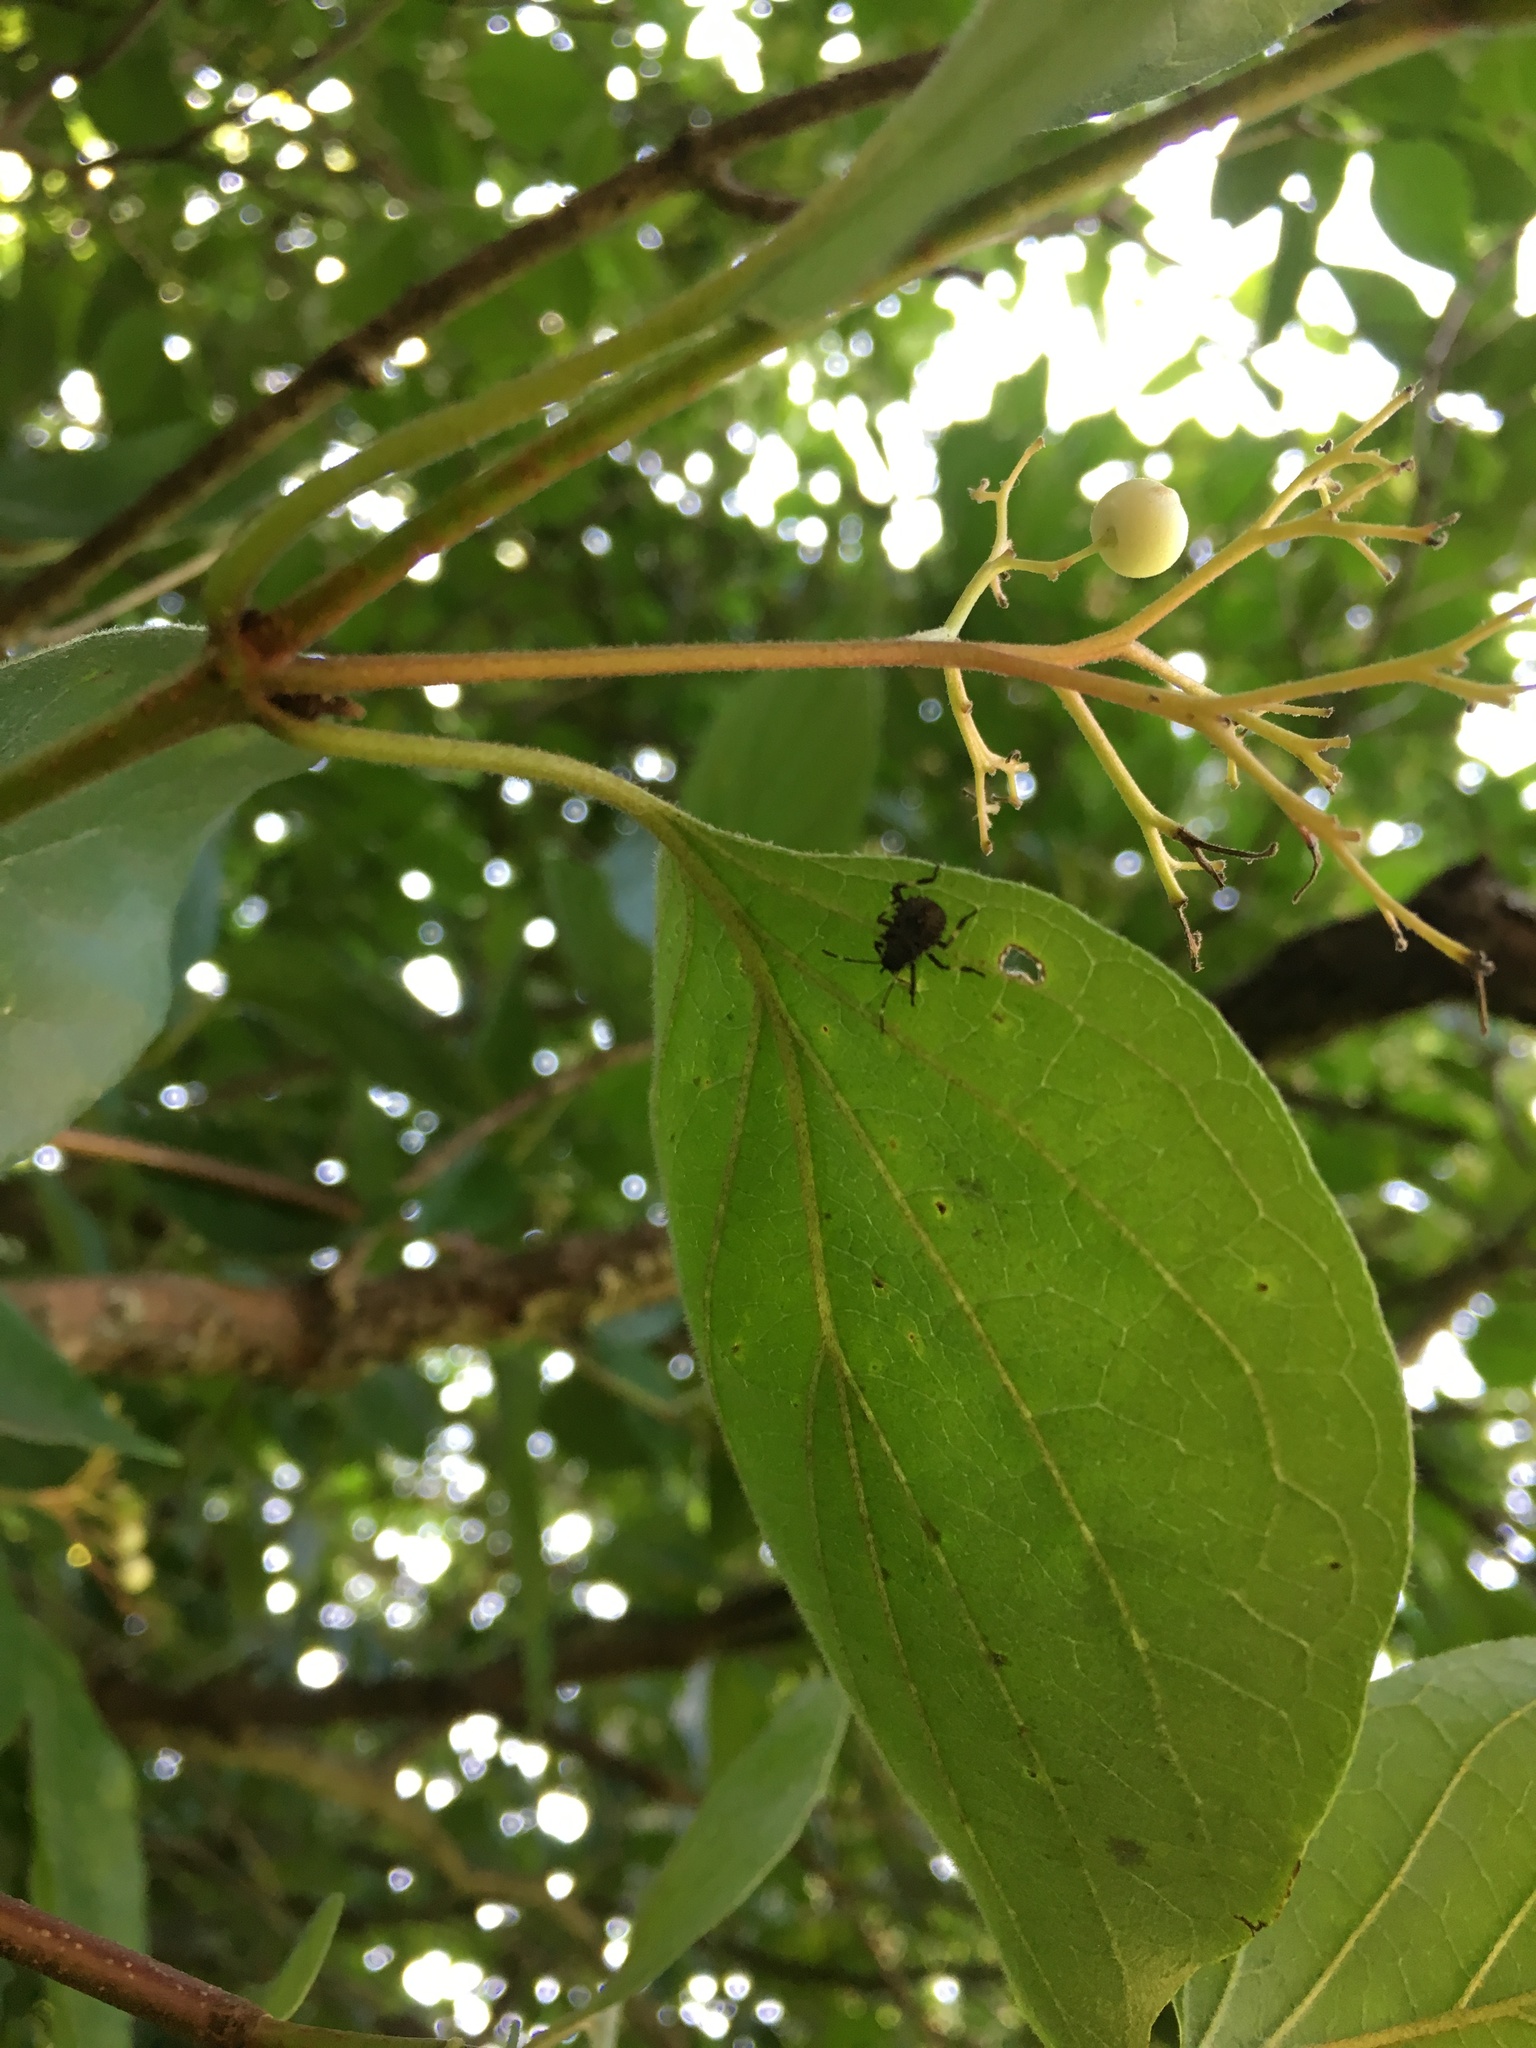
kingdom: Animalia
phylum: Arthropoda
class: Insecta
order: Hemiptera
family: Pentatomidae
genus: Halyomorpha
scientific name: Halyomorpha halys
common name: Brown marmorated stink bug
